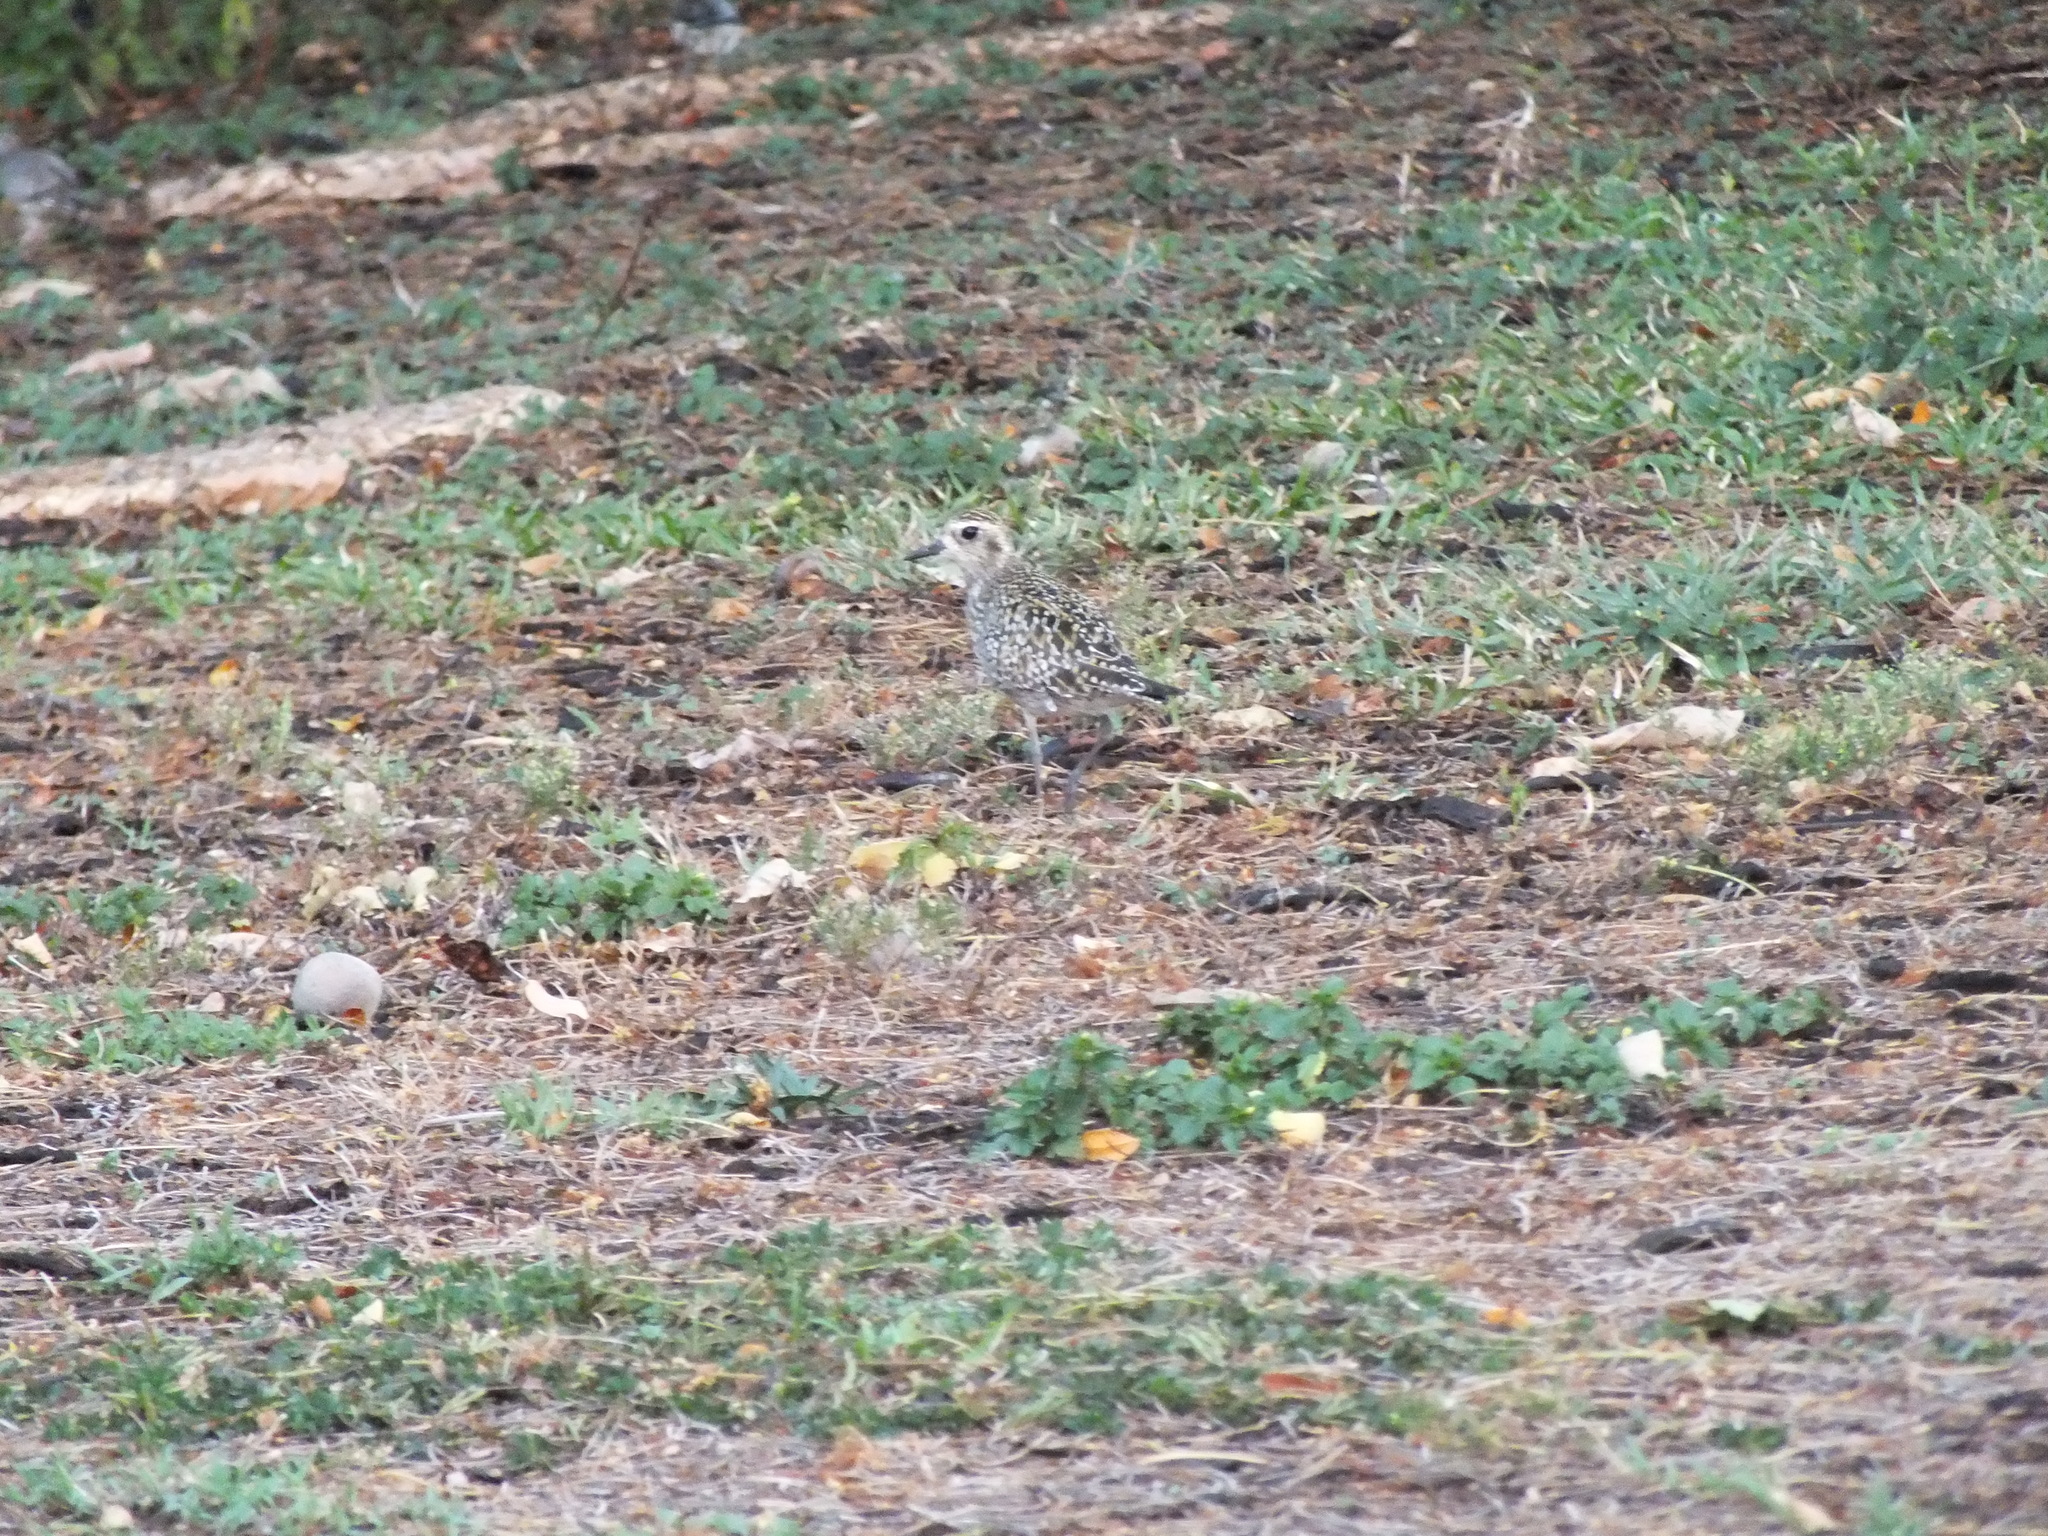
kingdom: Animalia
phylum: Chordata
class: Aves
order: Charadriiformes
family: Charadriidae
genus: Pluvialis
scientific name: Pluvialis fulva
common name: Pacific golden plover
